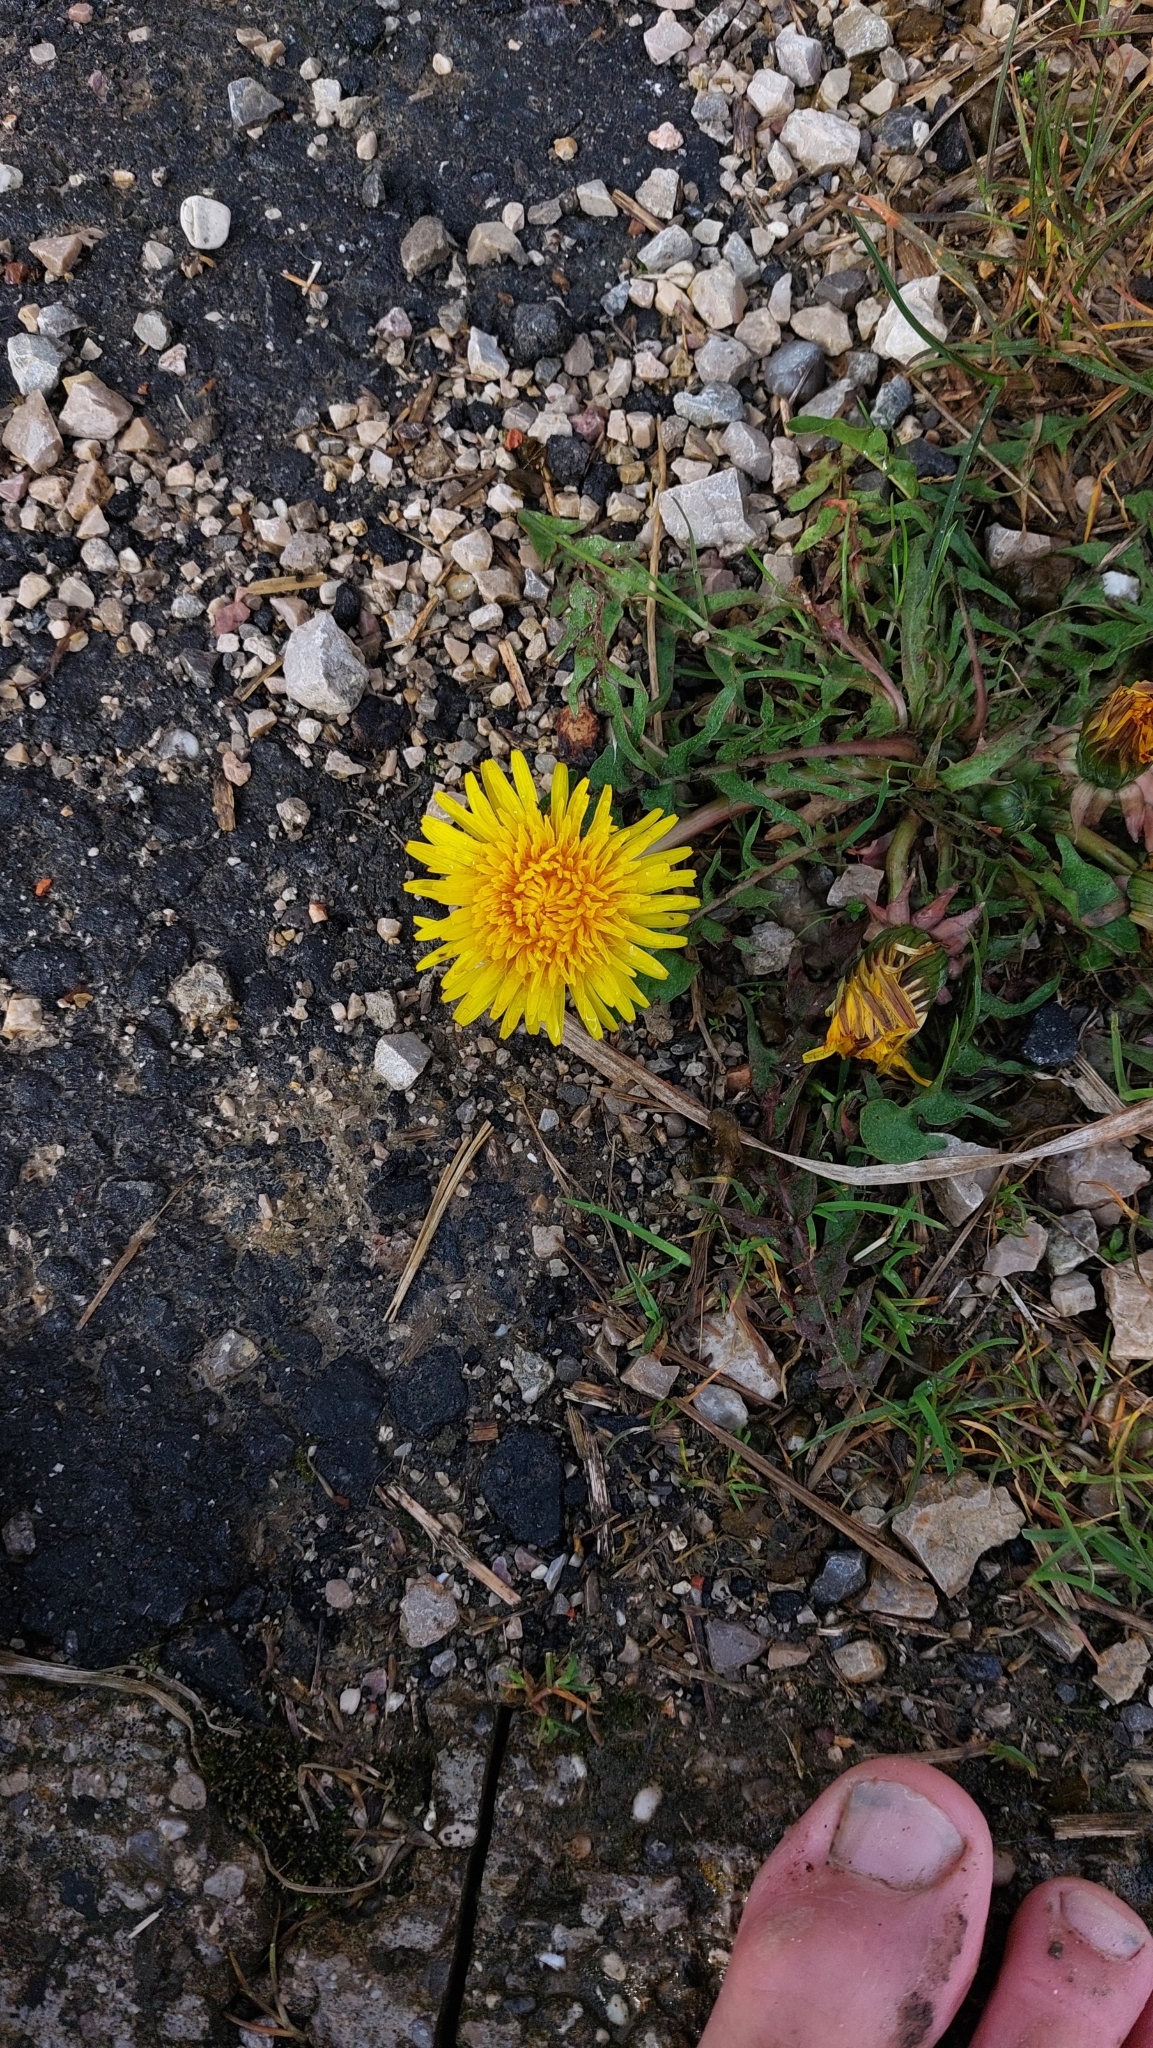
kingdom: Plantae
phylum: Tracheophyta
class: Magnoliopsida
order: Asterales
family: Asteraceae
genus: Taraxacum
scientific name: Taraxacum
